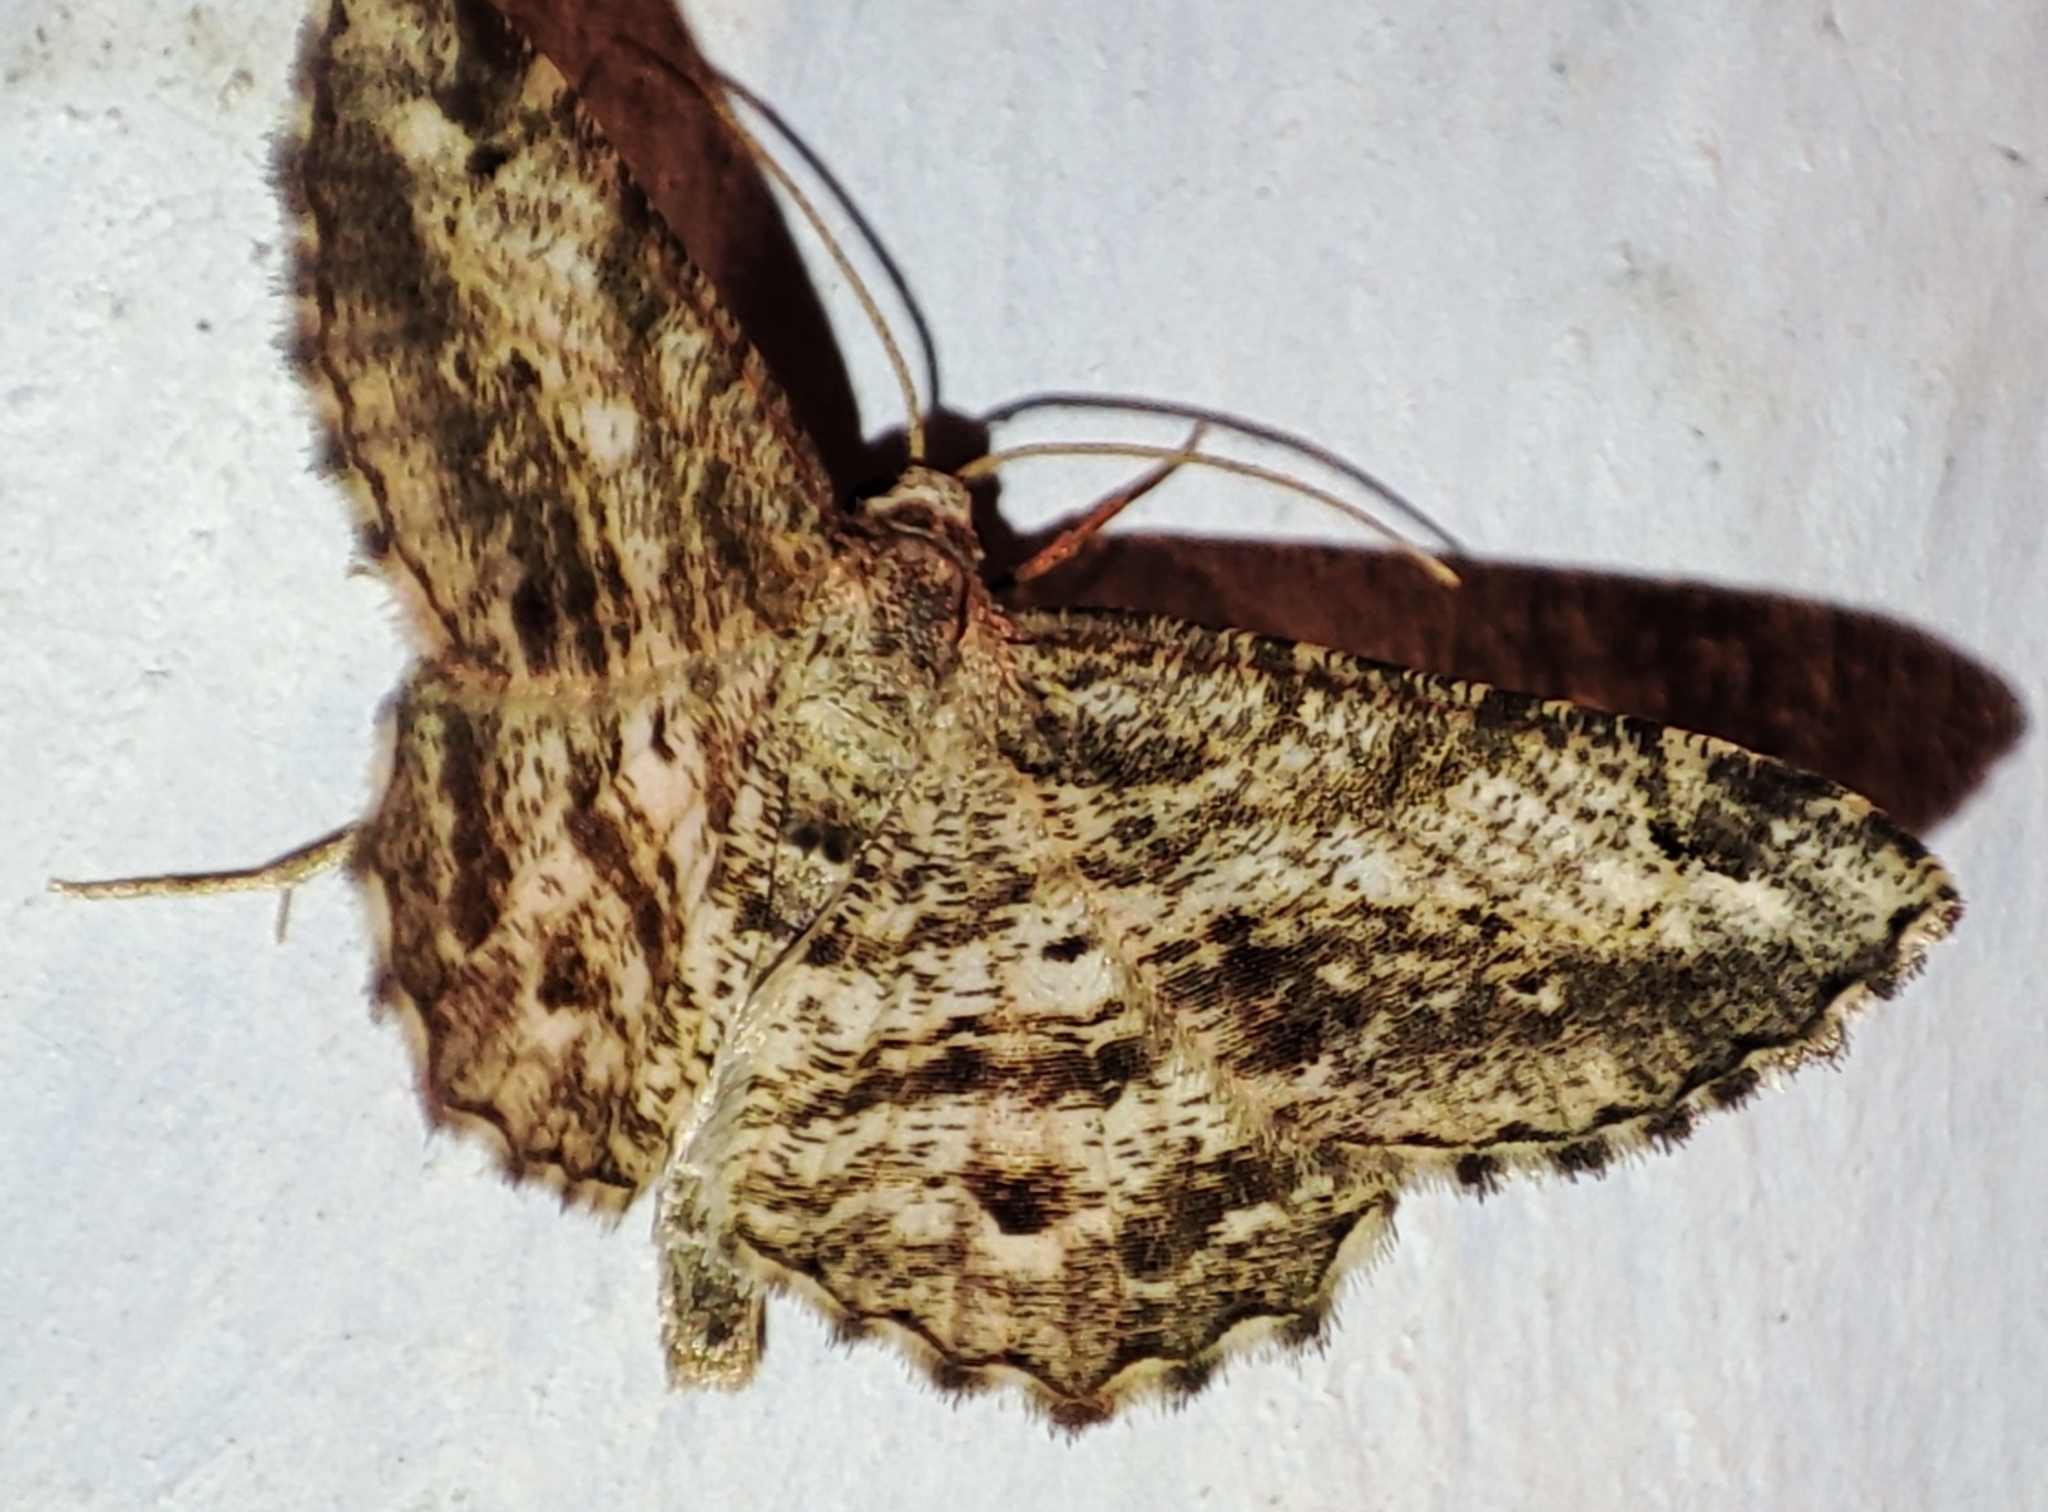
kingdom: Animalia
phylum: Arthropoda
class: Insecta
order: Lepidoptera
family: Geometridae
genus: Chiasmia
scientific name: Chiasmia aestimaria
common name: Tamarisk peacock
